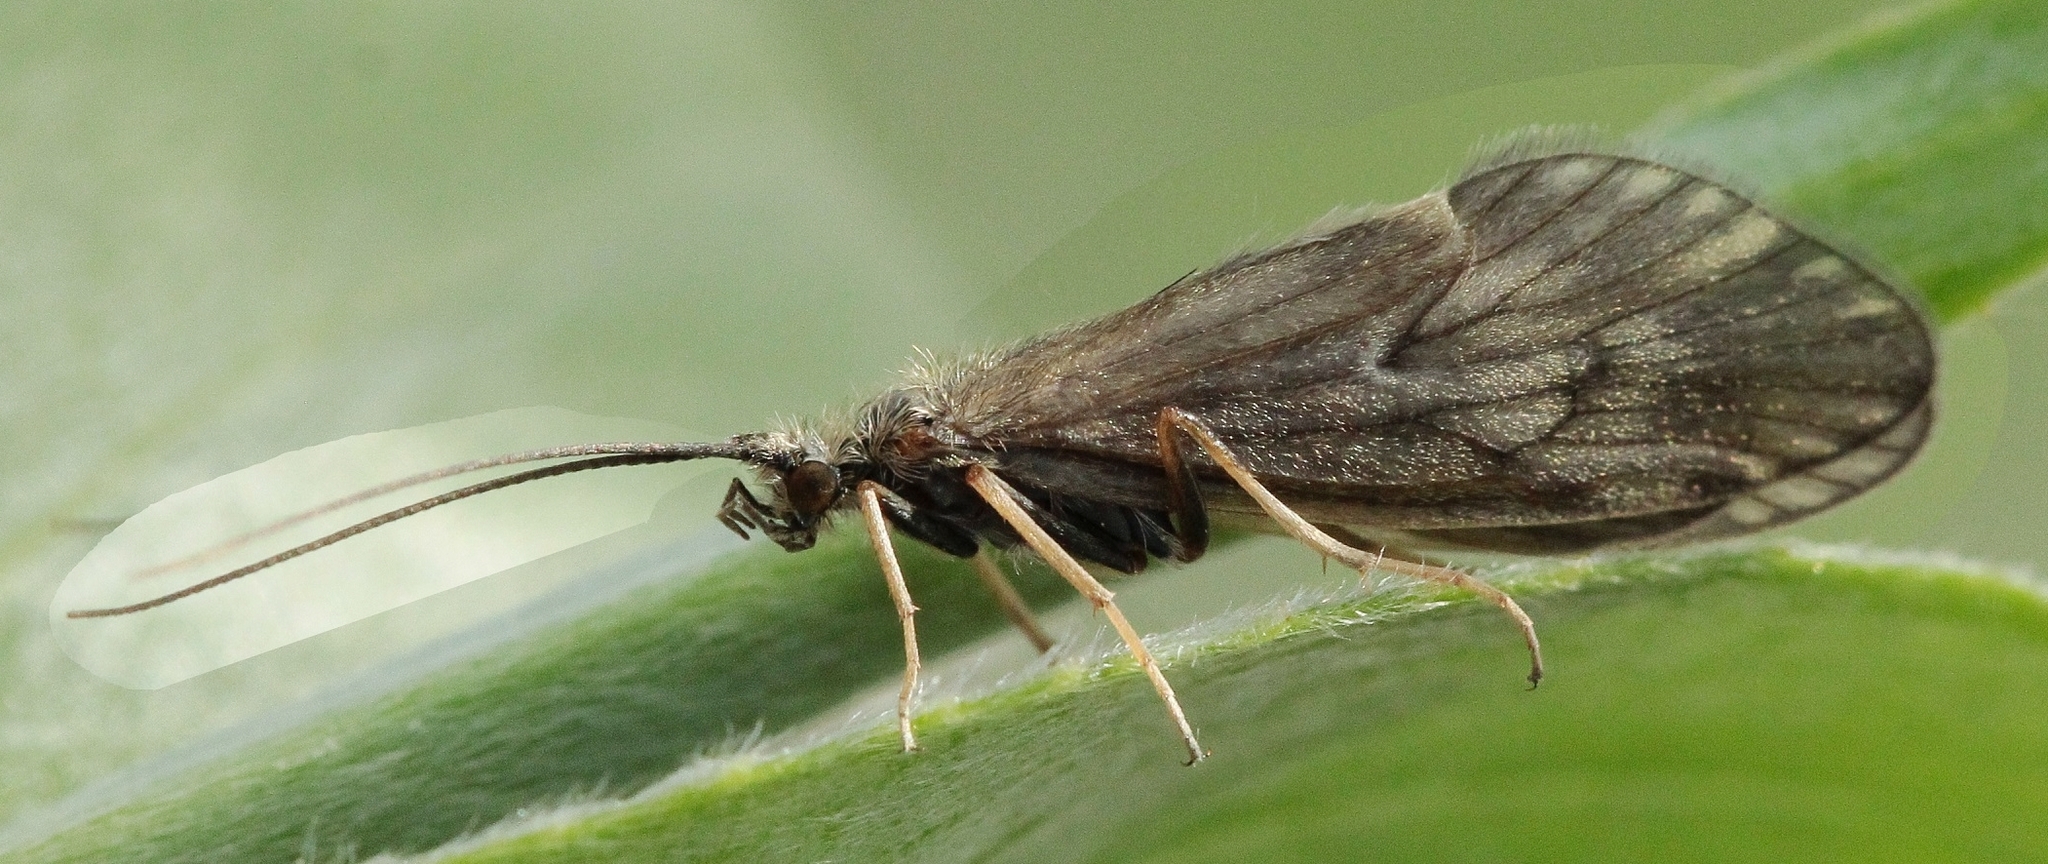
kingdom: Animalia
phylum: Arthropoda
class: Insecta
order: Trichoptera
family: Brachycentridae
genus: Brachycentrus
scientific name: Brachycentrus subnubilis
